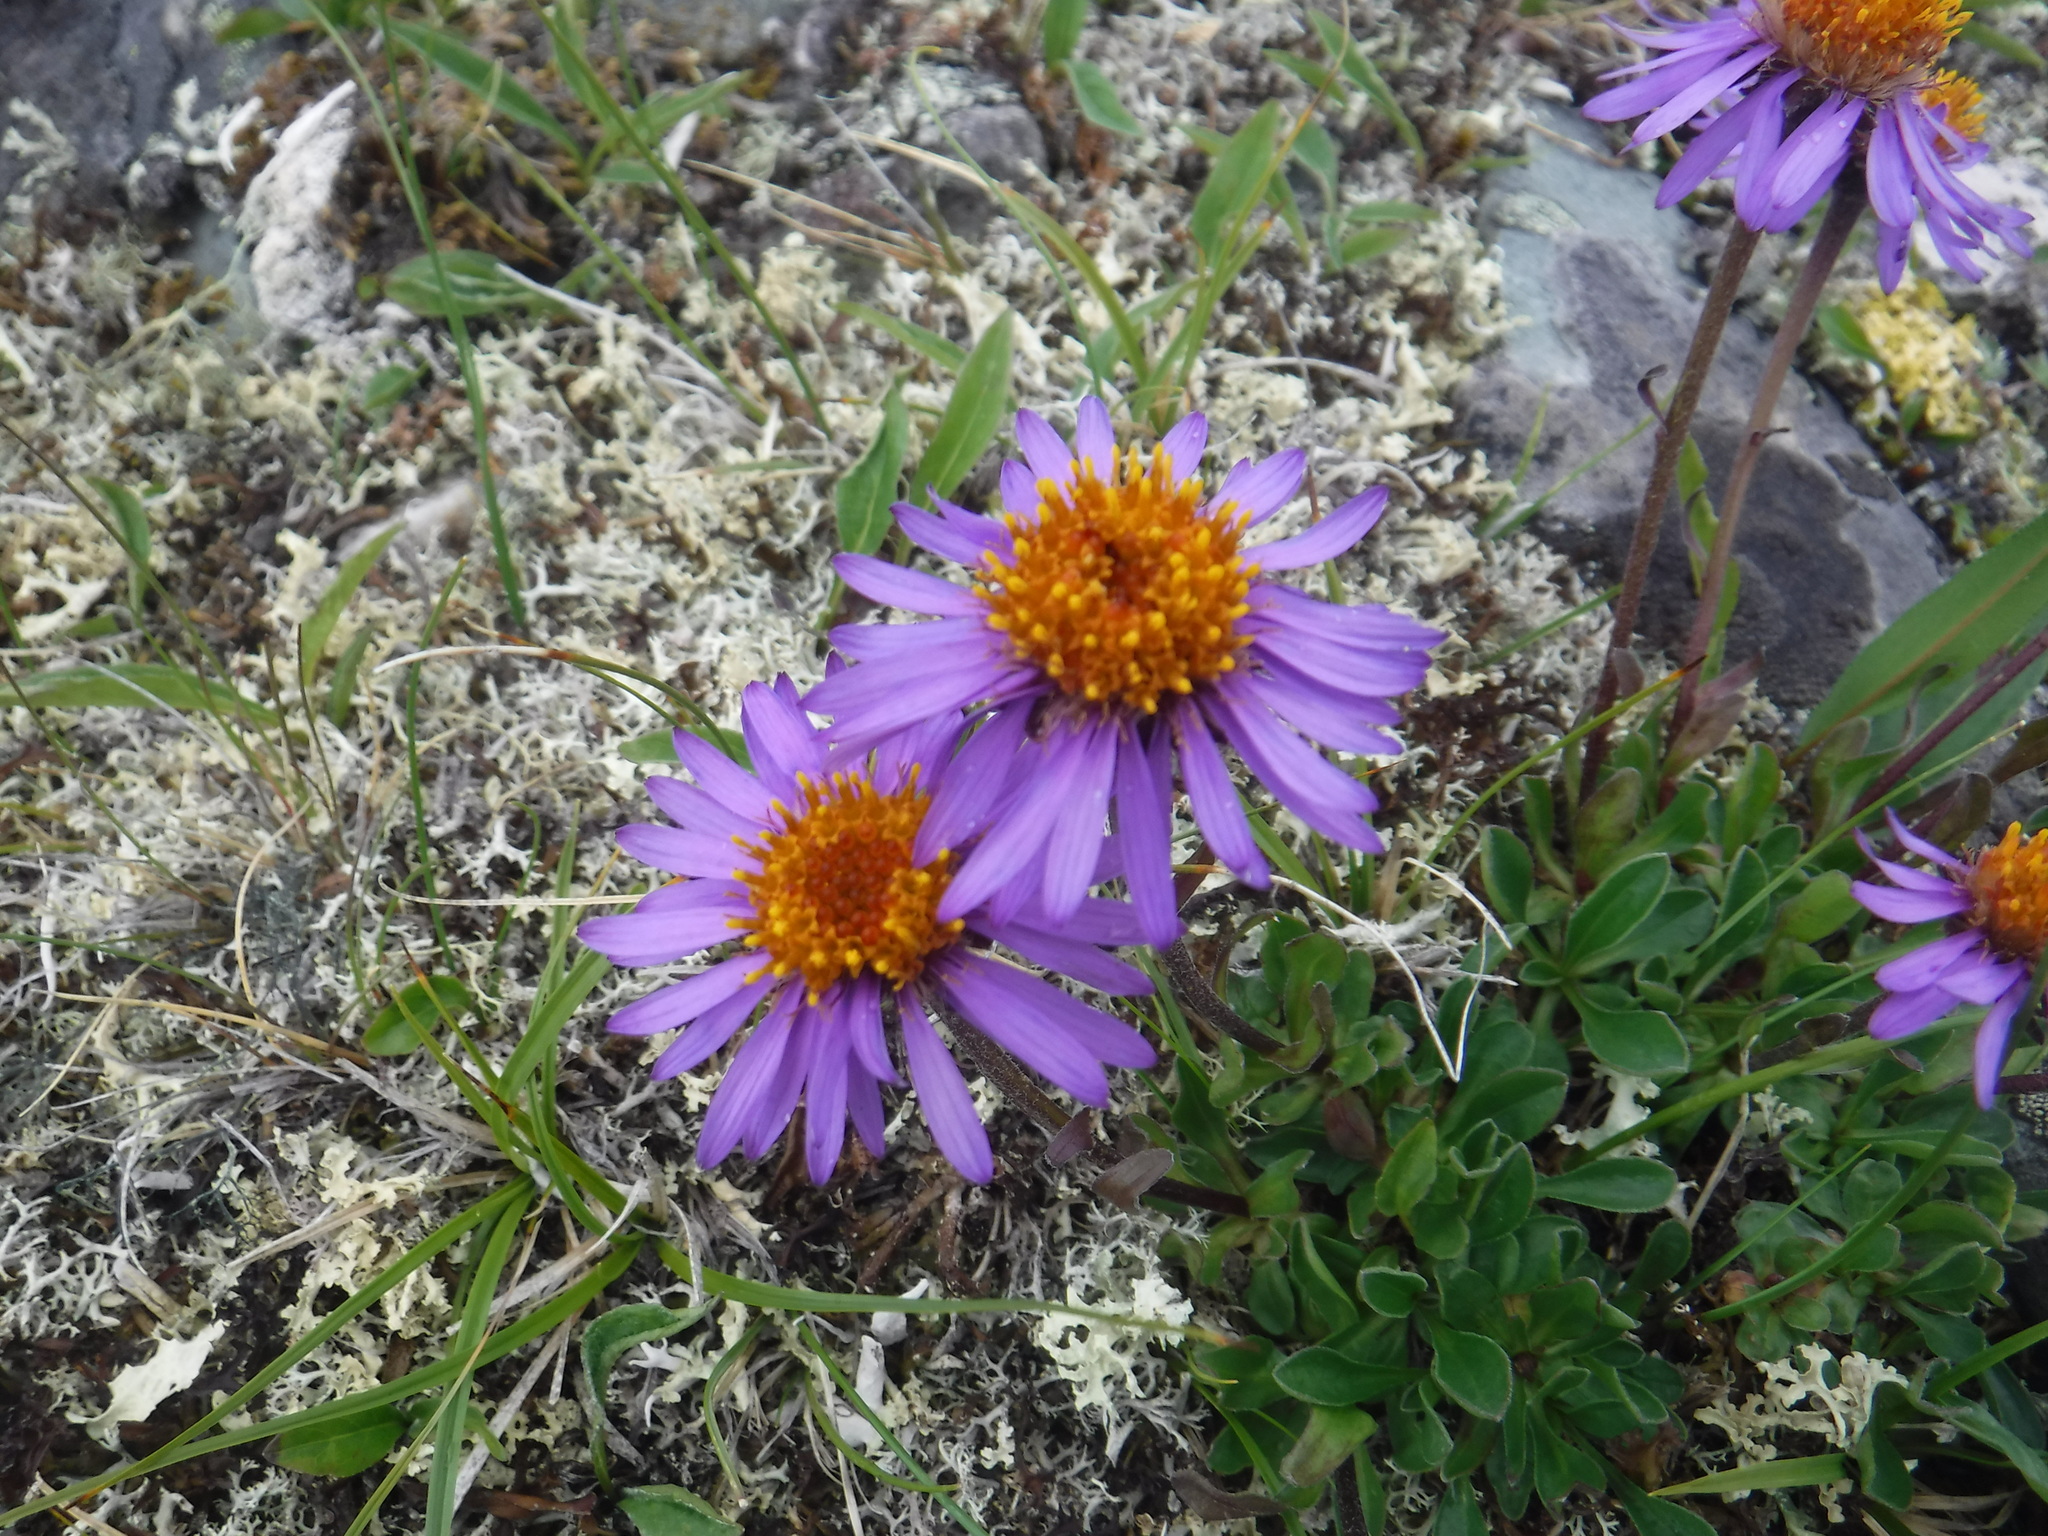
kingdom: Plantae
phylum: Tracheophyta
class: Magnoliopsida
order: Asterales
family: Asteraceae
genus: Aster
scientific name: Aster alpinus
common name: Alpine aster
